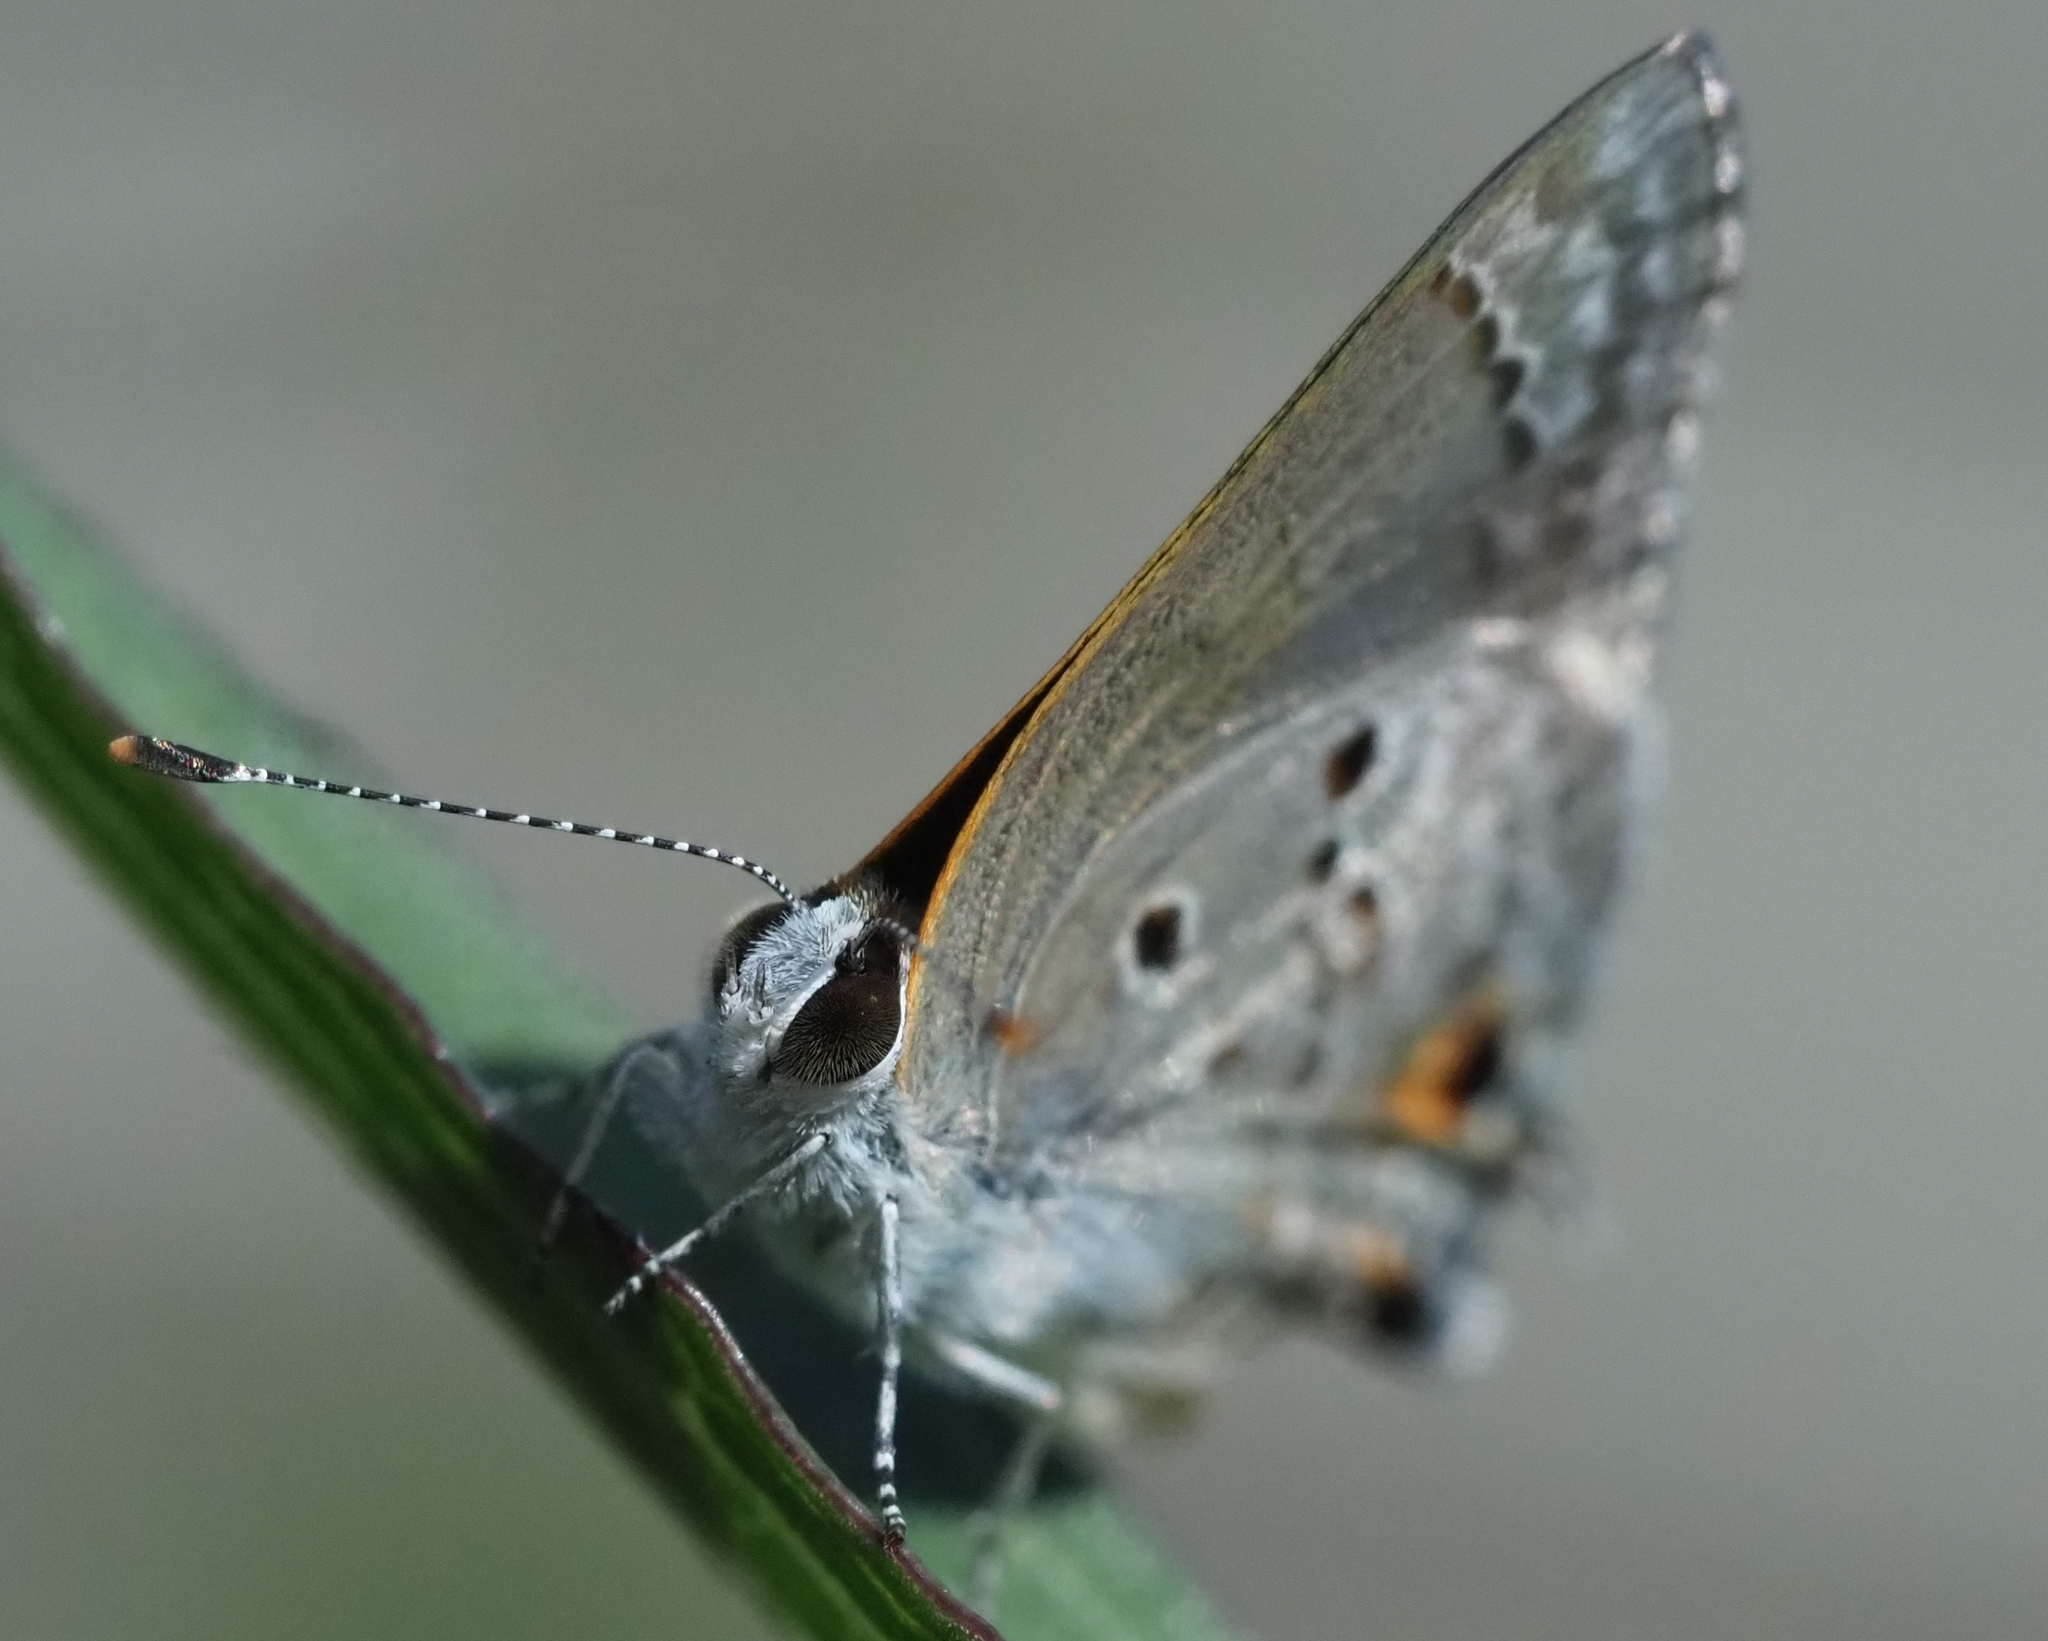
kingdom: Animalia
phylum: Arthropoda
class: Insecta
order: Lepidoptera
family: Lycaenidae
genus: Callicista
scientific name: Callicista columella
